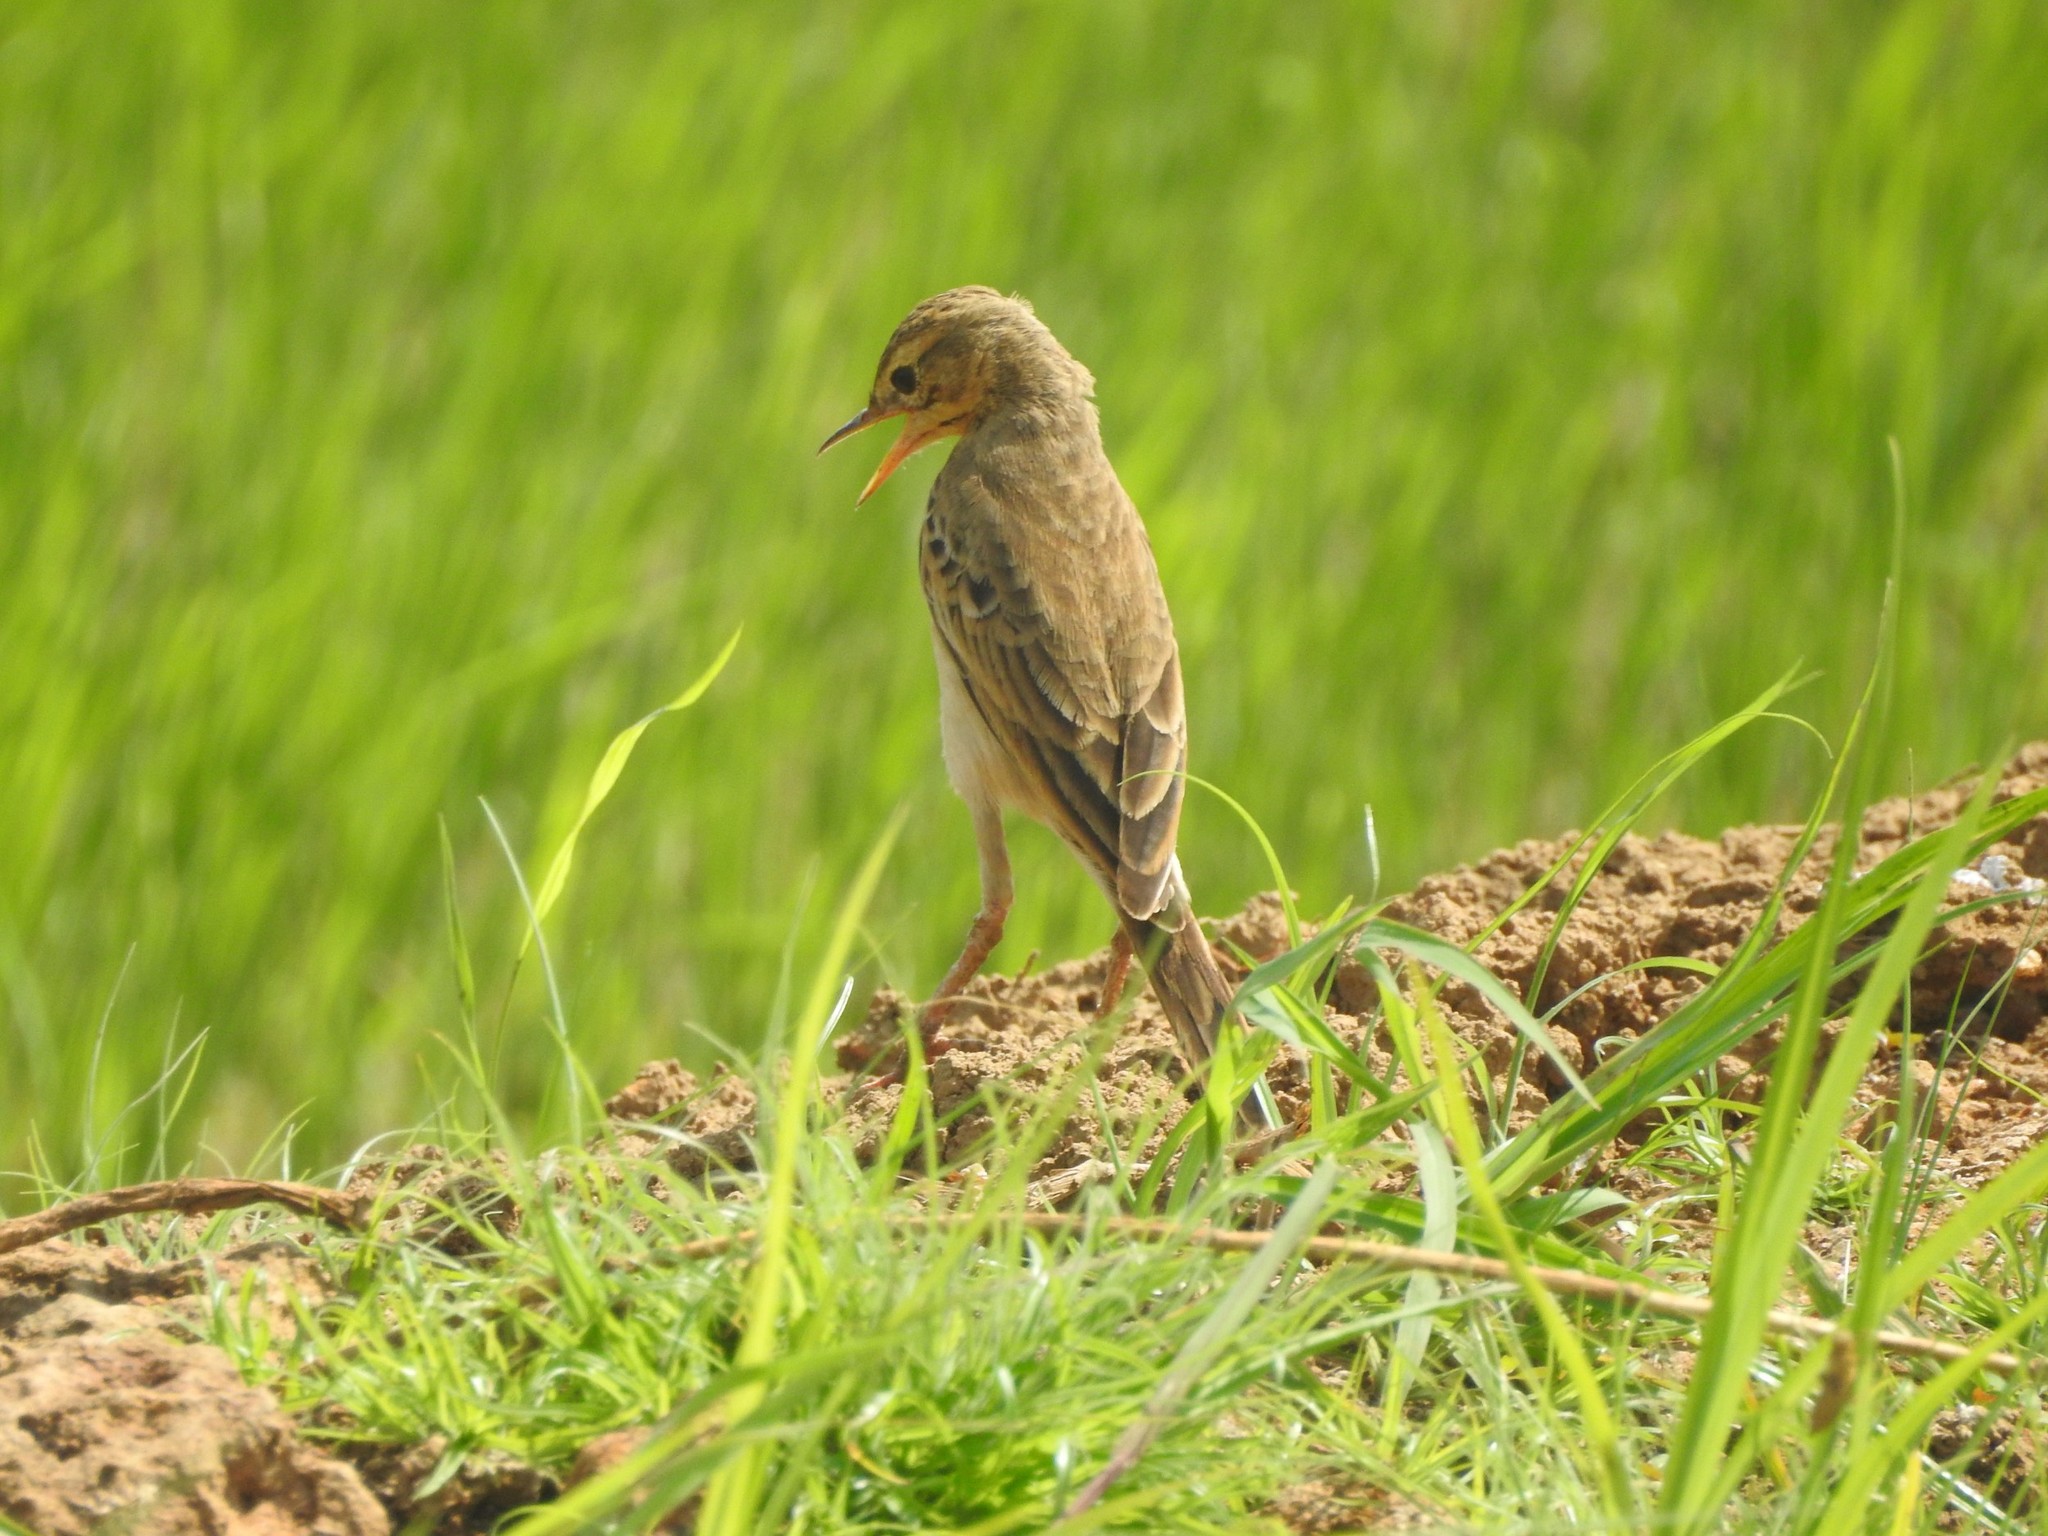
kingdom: Animalia
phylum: Chordata
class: Aves
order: Passeriformes
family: Motacillidae
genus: Anthus
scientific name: Anthus rufulus
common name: Paddyfield pipit
